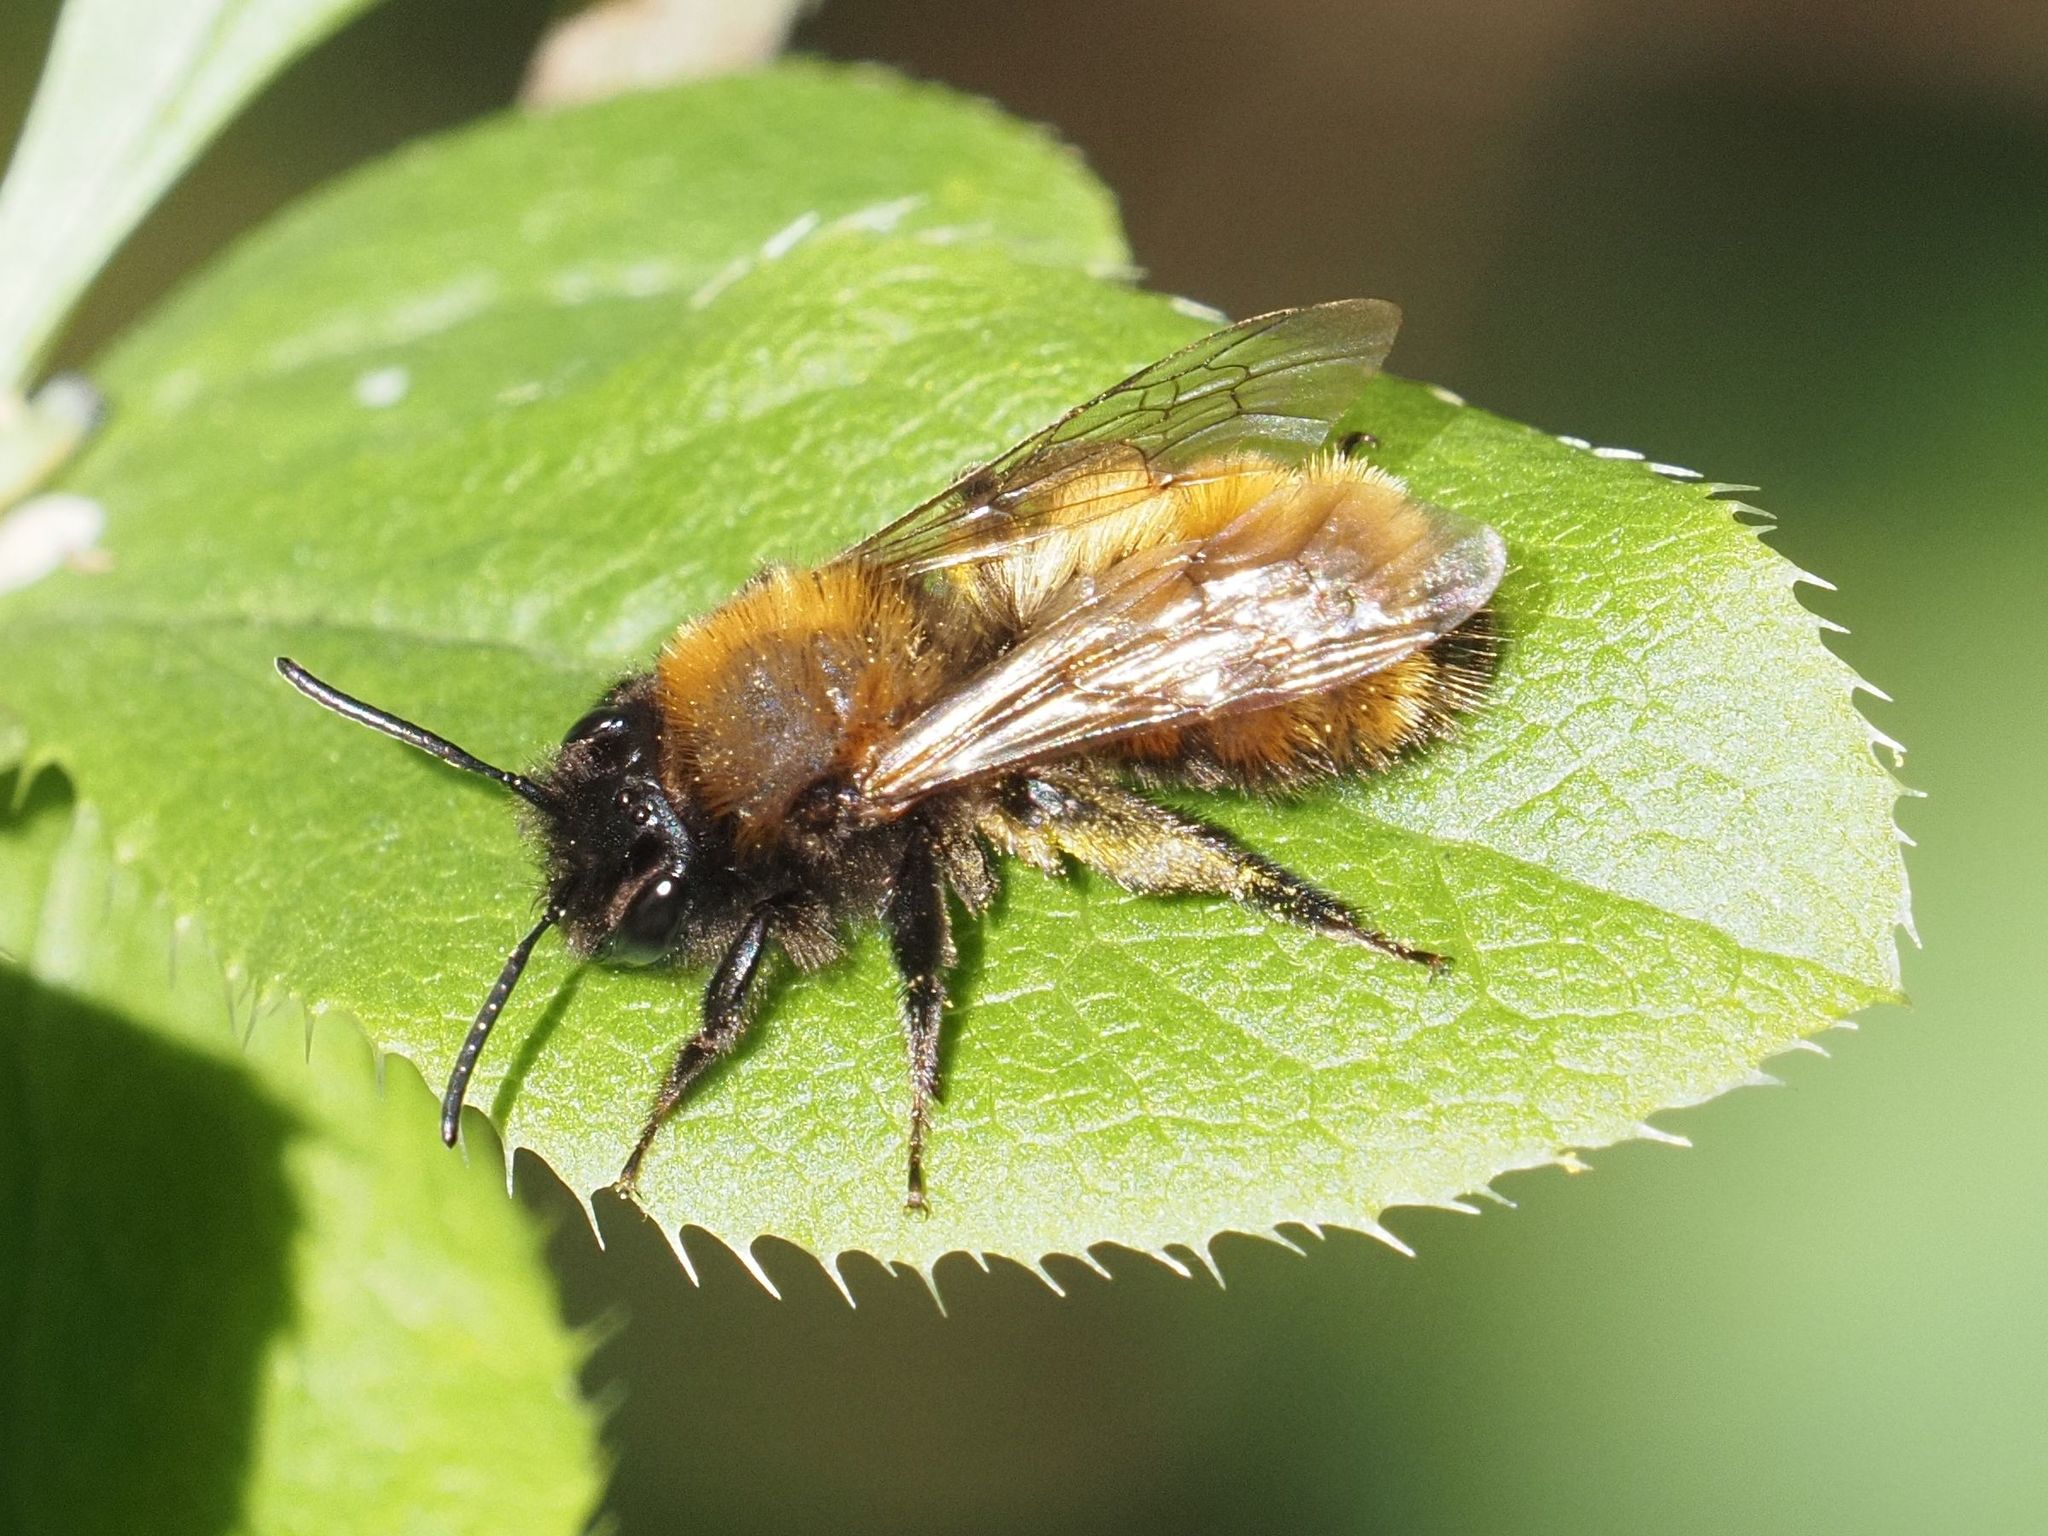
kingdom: Animalia
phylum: Arthropoda
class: Insecta
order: Hymenoptera
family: Andrenidae
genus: Andrena
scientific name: Andrena fulva
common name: Tawny mining bee
